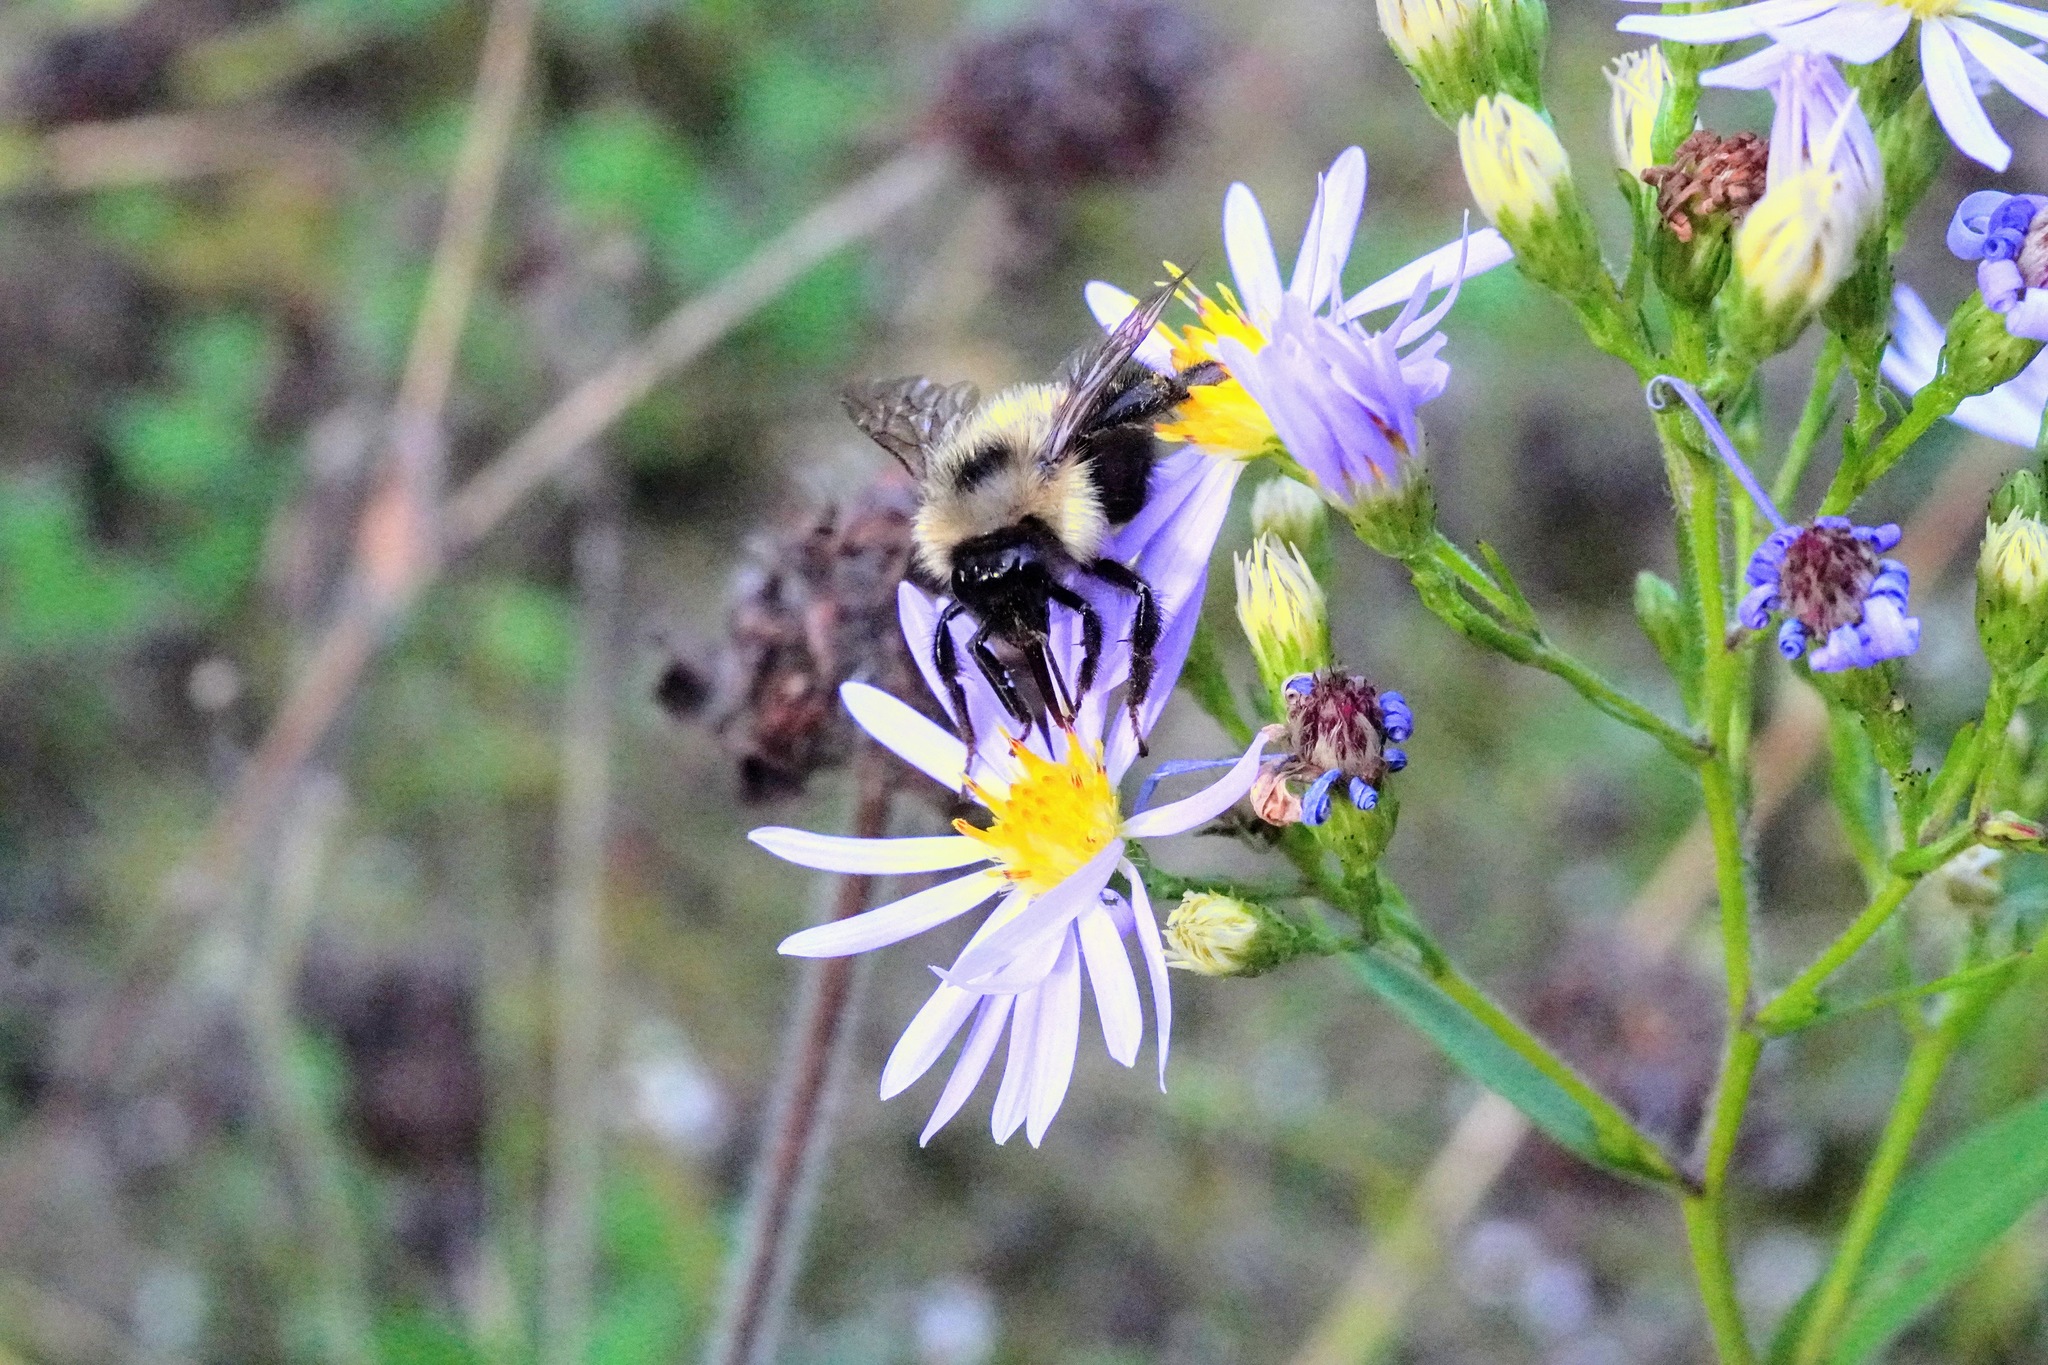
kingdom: Animalia
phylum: Arthropoda
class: Insecta
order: Hymenoptera
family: Apidae
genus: Bombus
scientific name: Bombus vagans
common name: Half-black bumble bee
